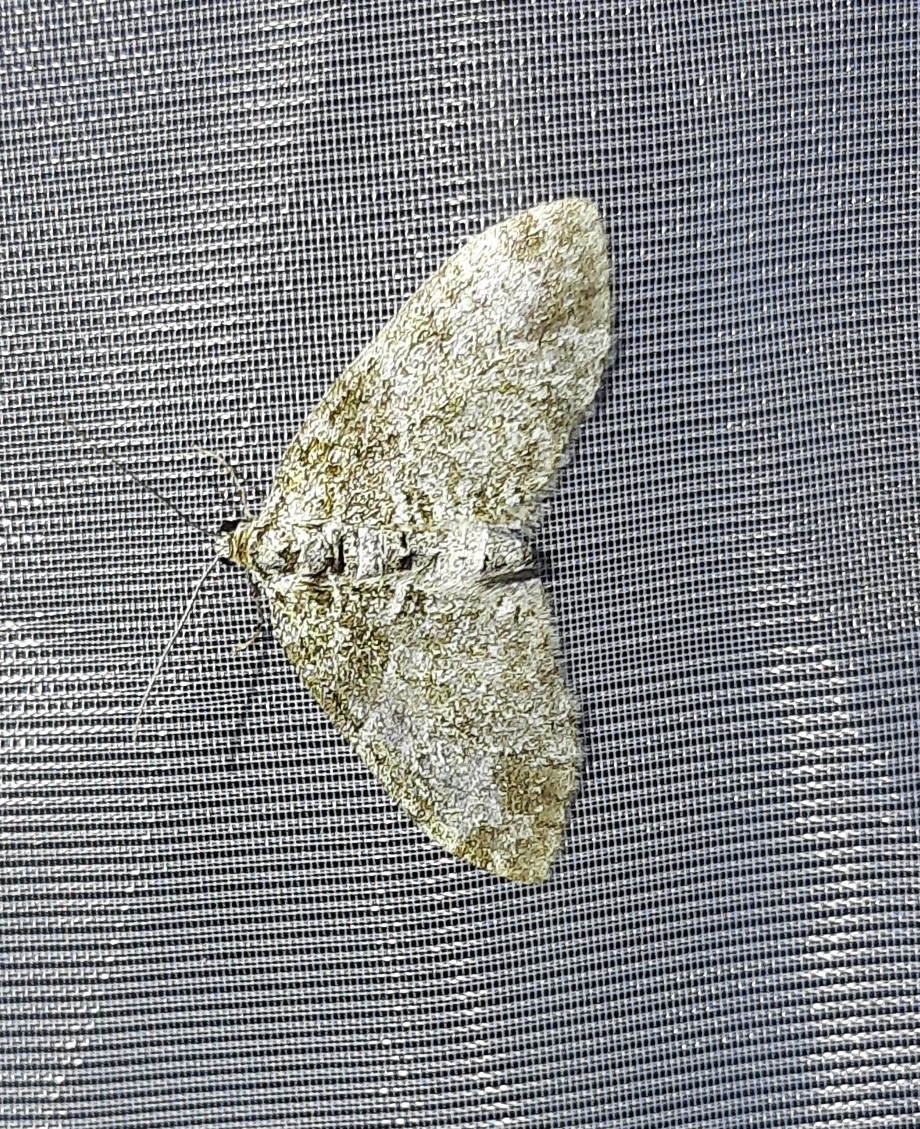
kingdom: Animalia
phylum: Arthropoda
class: Insecta
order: Lepidoptera
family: Geometridae
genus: Lobophora
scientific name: Lobophora halterata
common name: Seraphim
